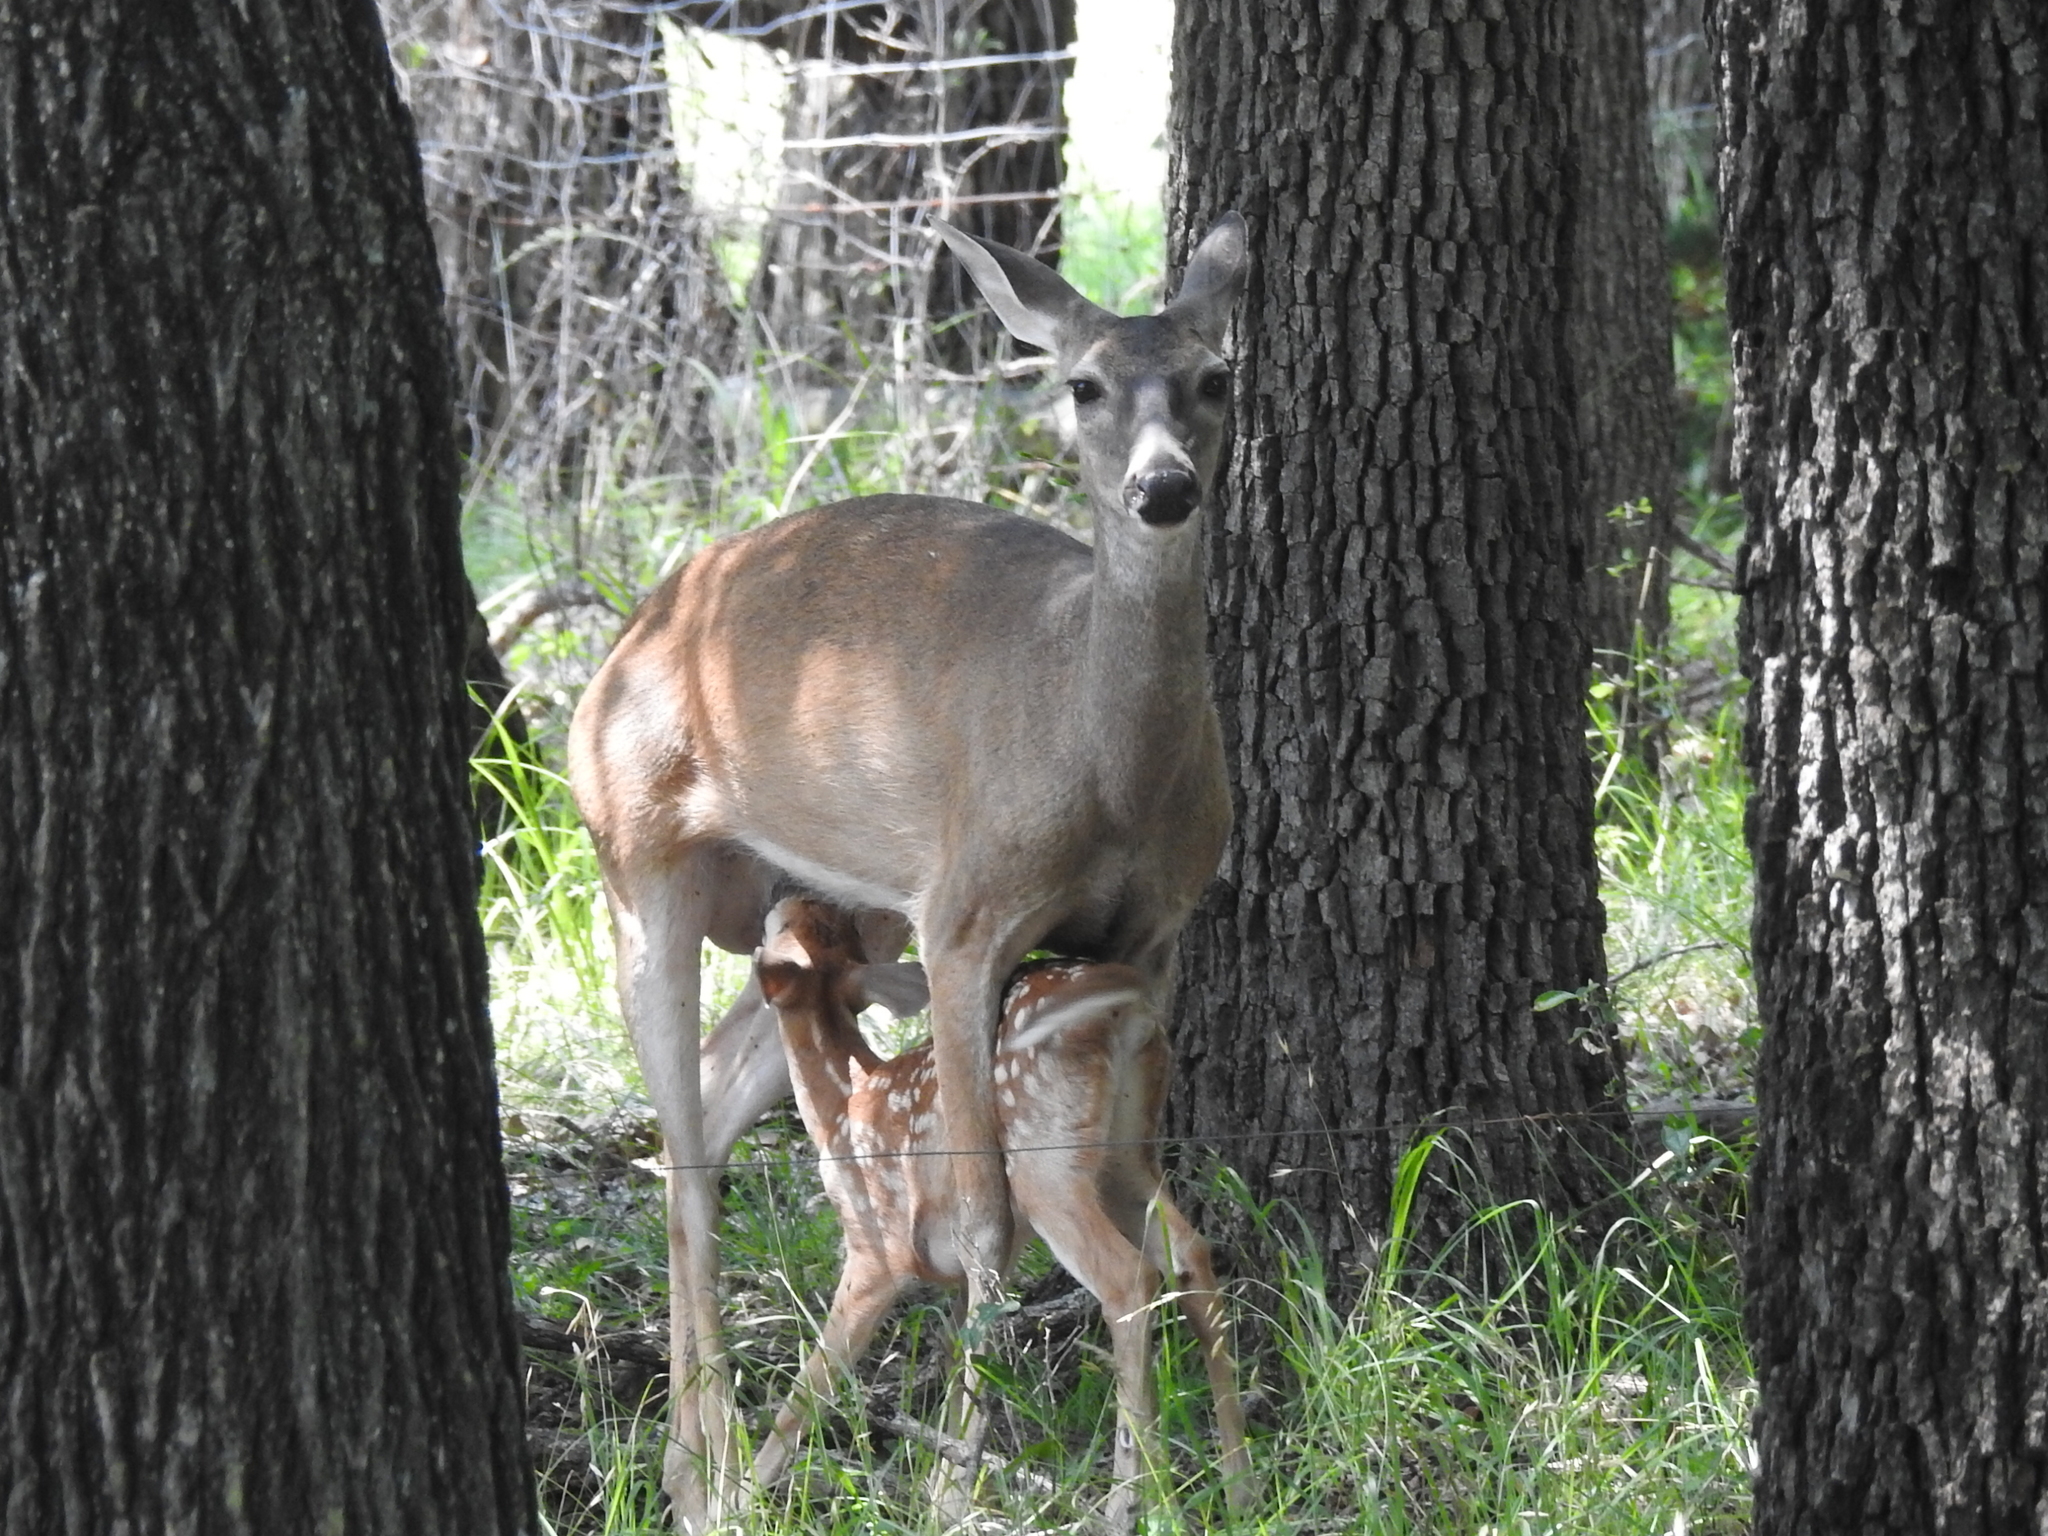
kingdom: Animalia
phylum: Chordata
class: Mammalia
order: Artiodactyla
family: Cervidae
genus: Odocoileus
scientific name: Odocoileus virginianus
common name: White-tailed deer
